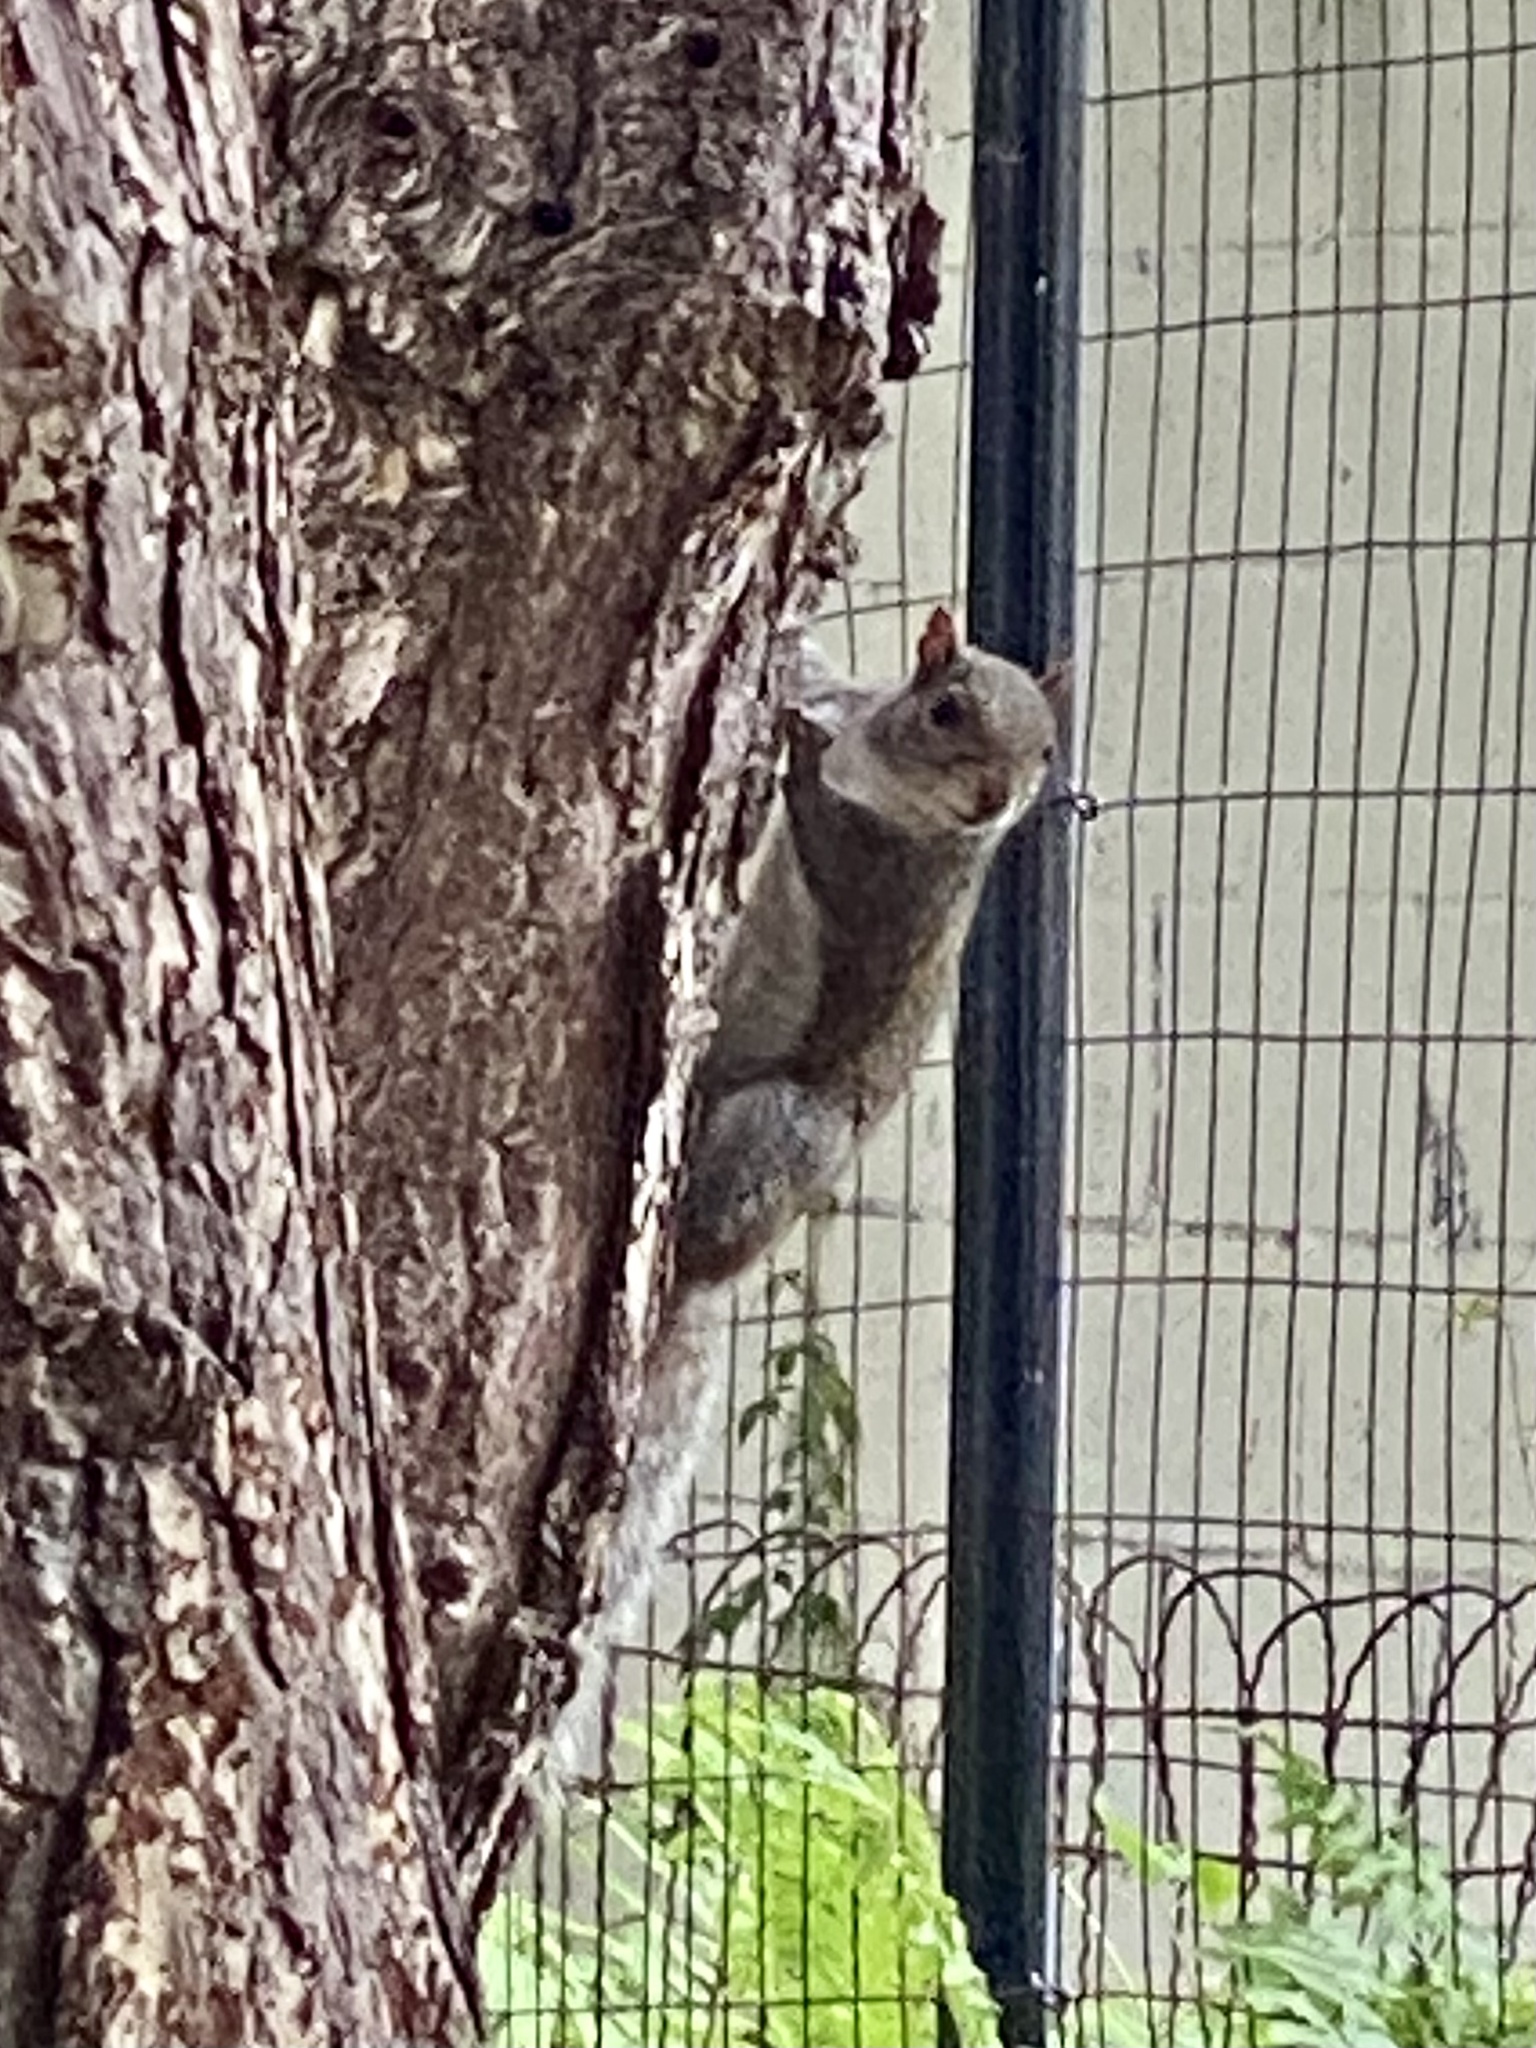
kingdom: Animalia
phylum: Chordata
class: Mammalia
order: Rodentia
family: Sciuridae
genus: Sciurus
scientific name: Sciurus carolinensis
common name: Eastern gray squirrel
